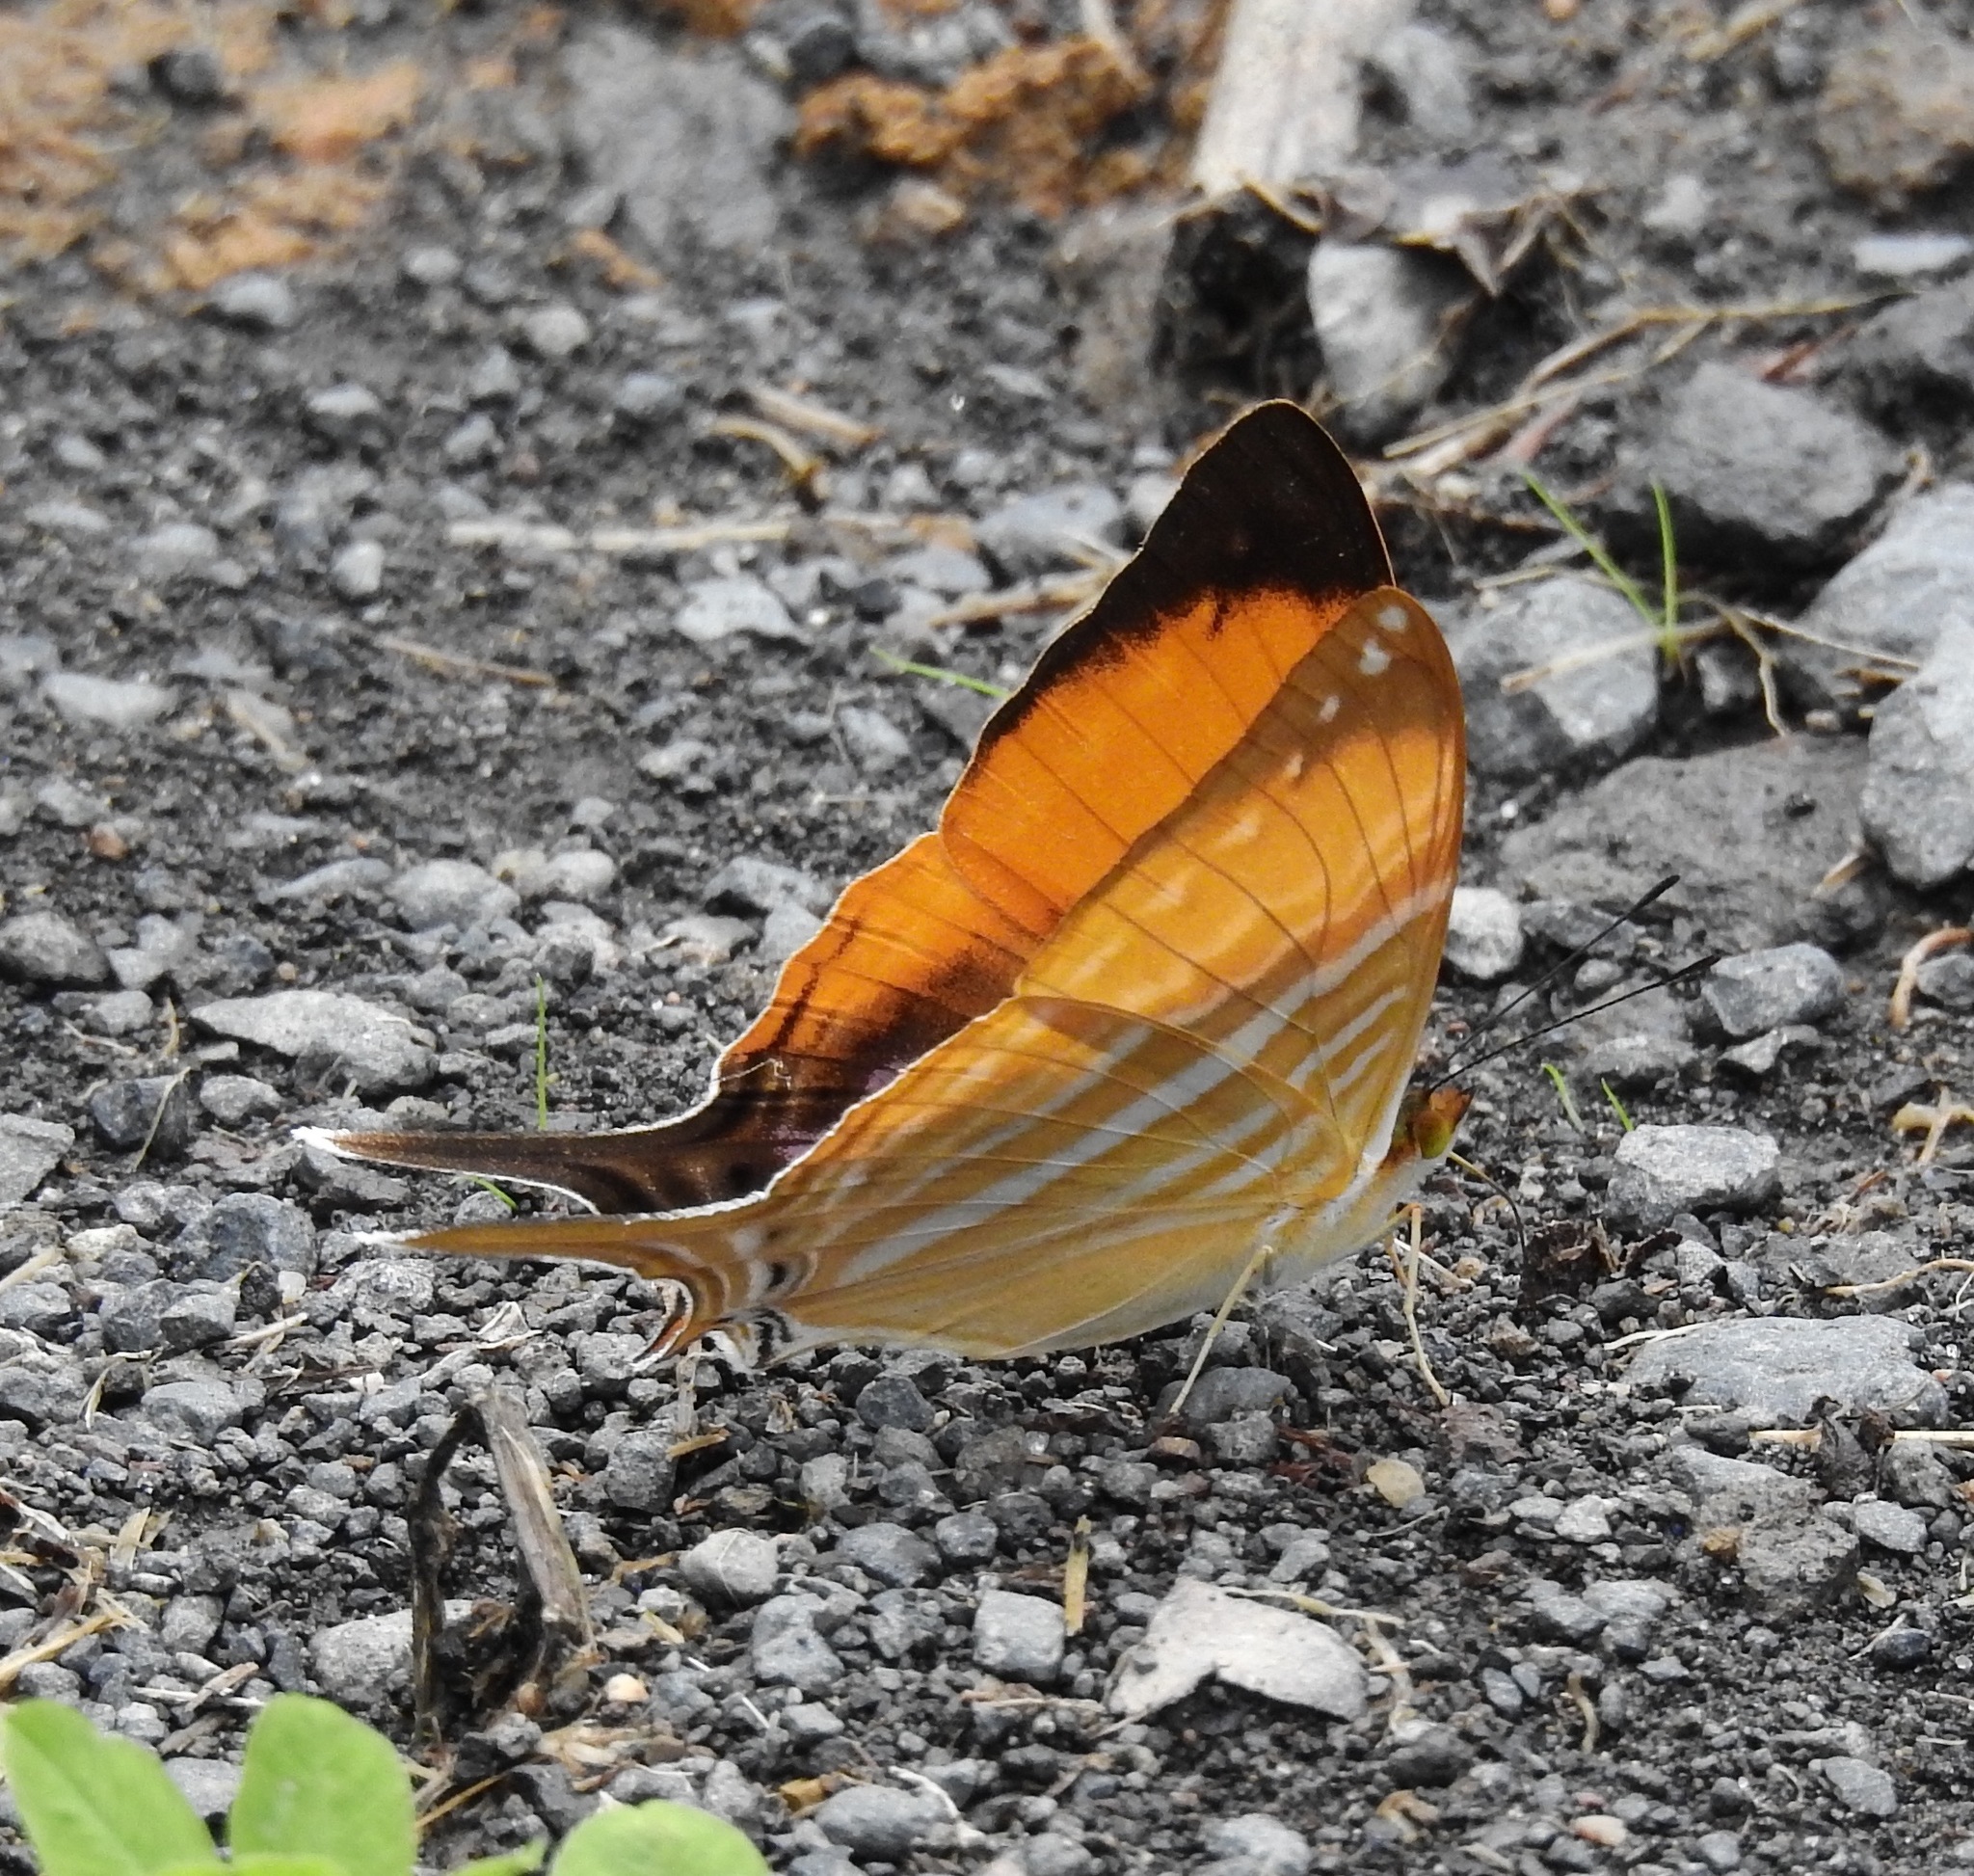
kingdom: Animalia
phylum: Arthropoda
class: Insecta
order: Lepidoptera
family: Nymphalidae
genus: Marpesia
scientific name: Marpesia marcella
